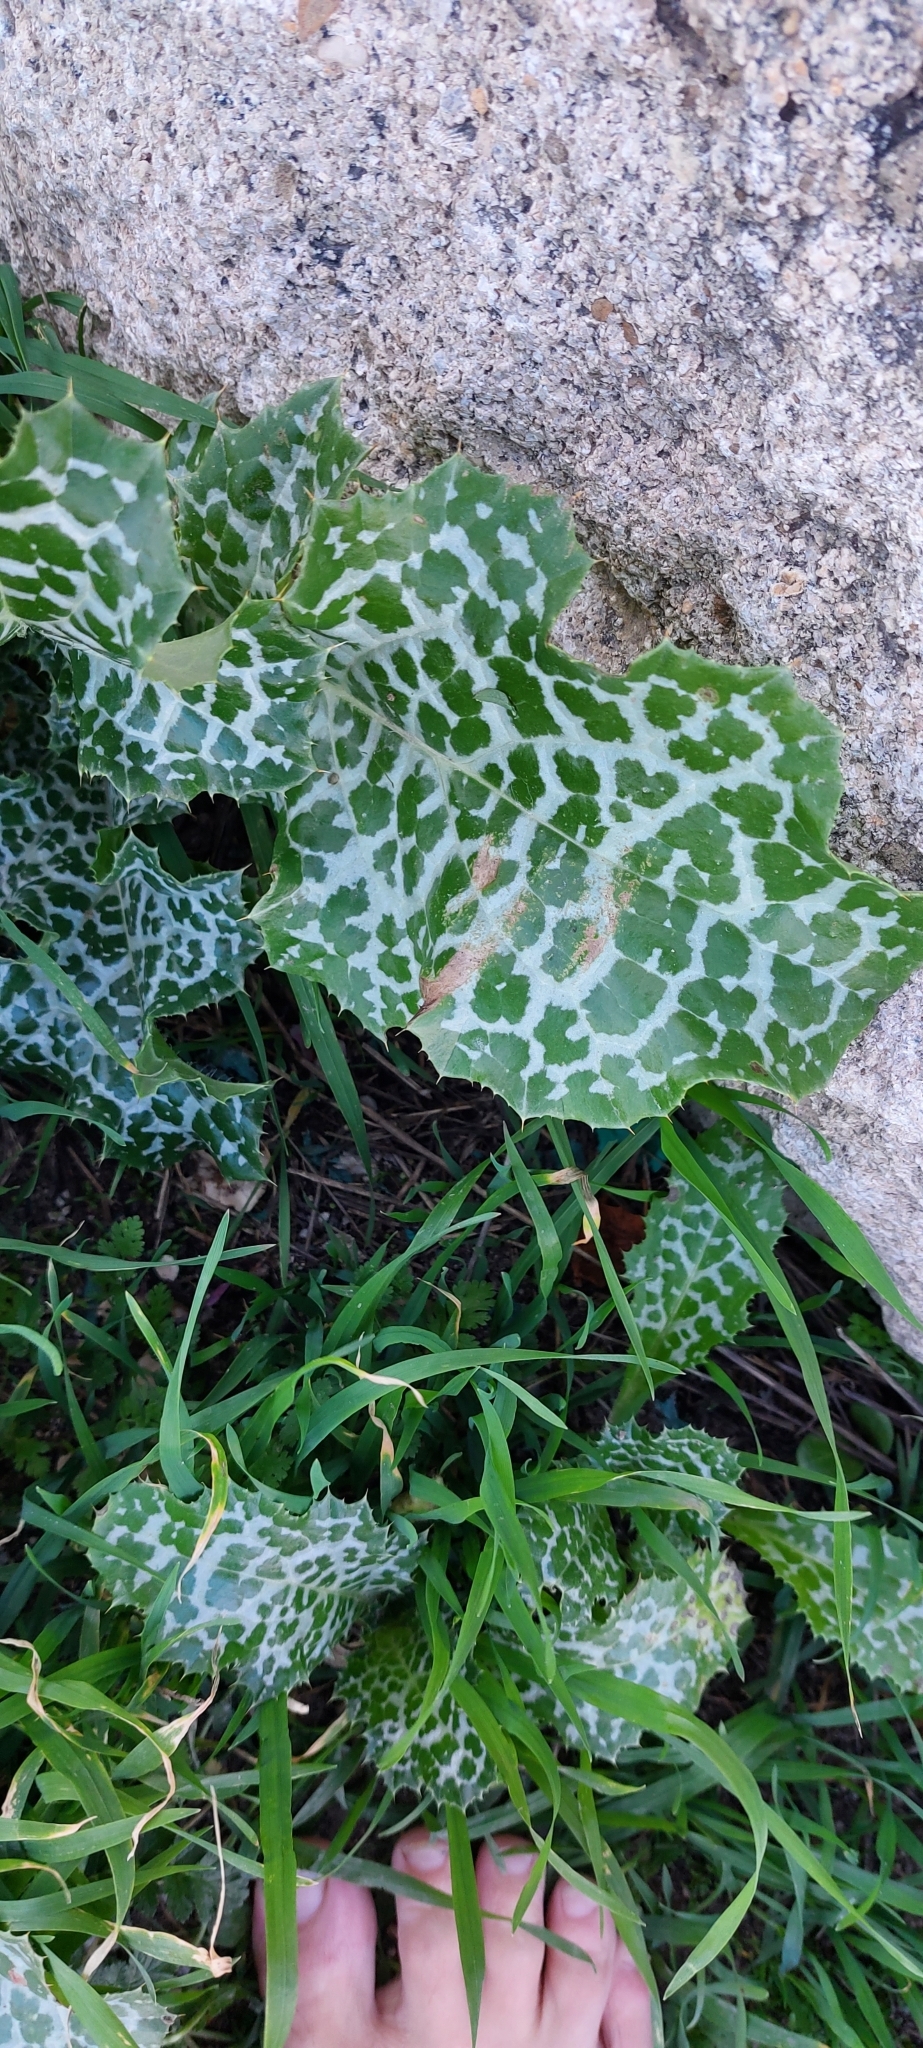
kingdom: Plantae
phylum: Tracheophyta
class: Magnoliopsida
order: Asterales
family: Asteraceae
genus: Silybum
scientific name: Silybum marianum
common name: Milk thistle
